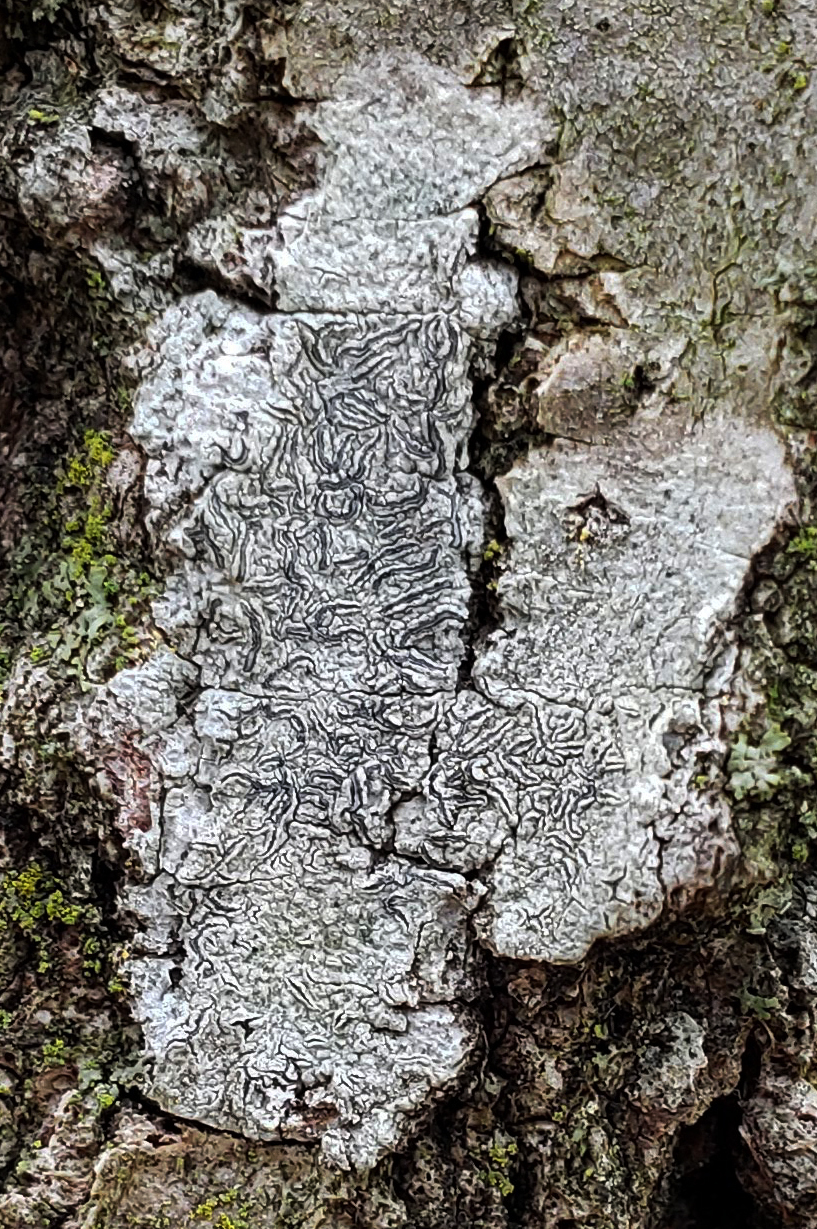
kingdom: Fungi
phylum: Ascomycota
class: Lecanoromycetes
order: Ostropales
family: Graphidaceae
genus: Graphis
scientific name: Graphis scripta
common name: Script lichen
